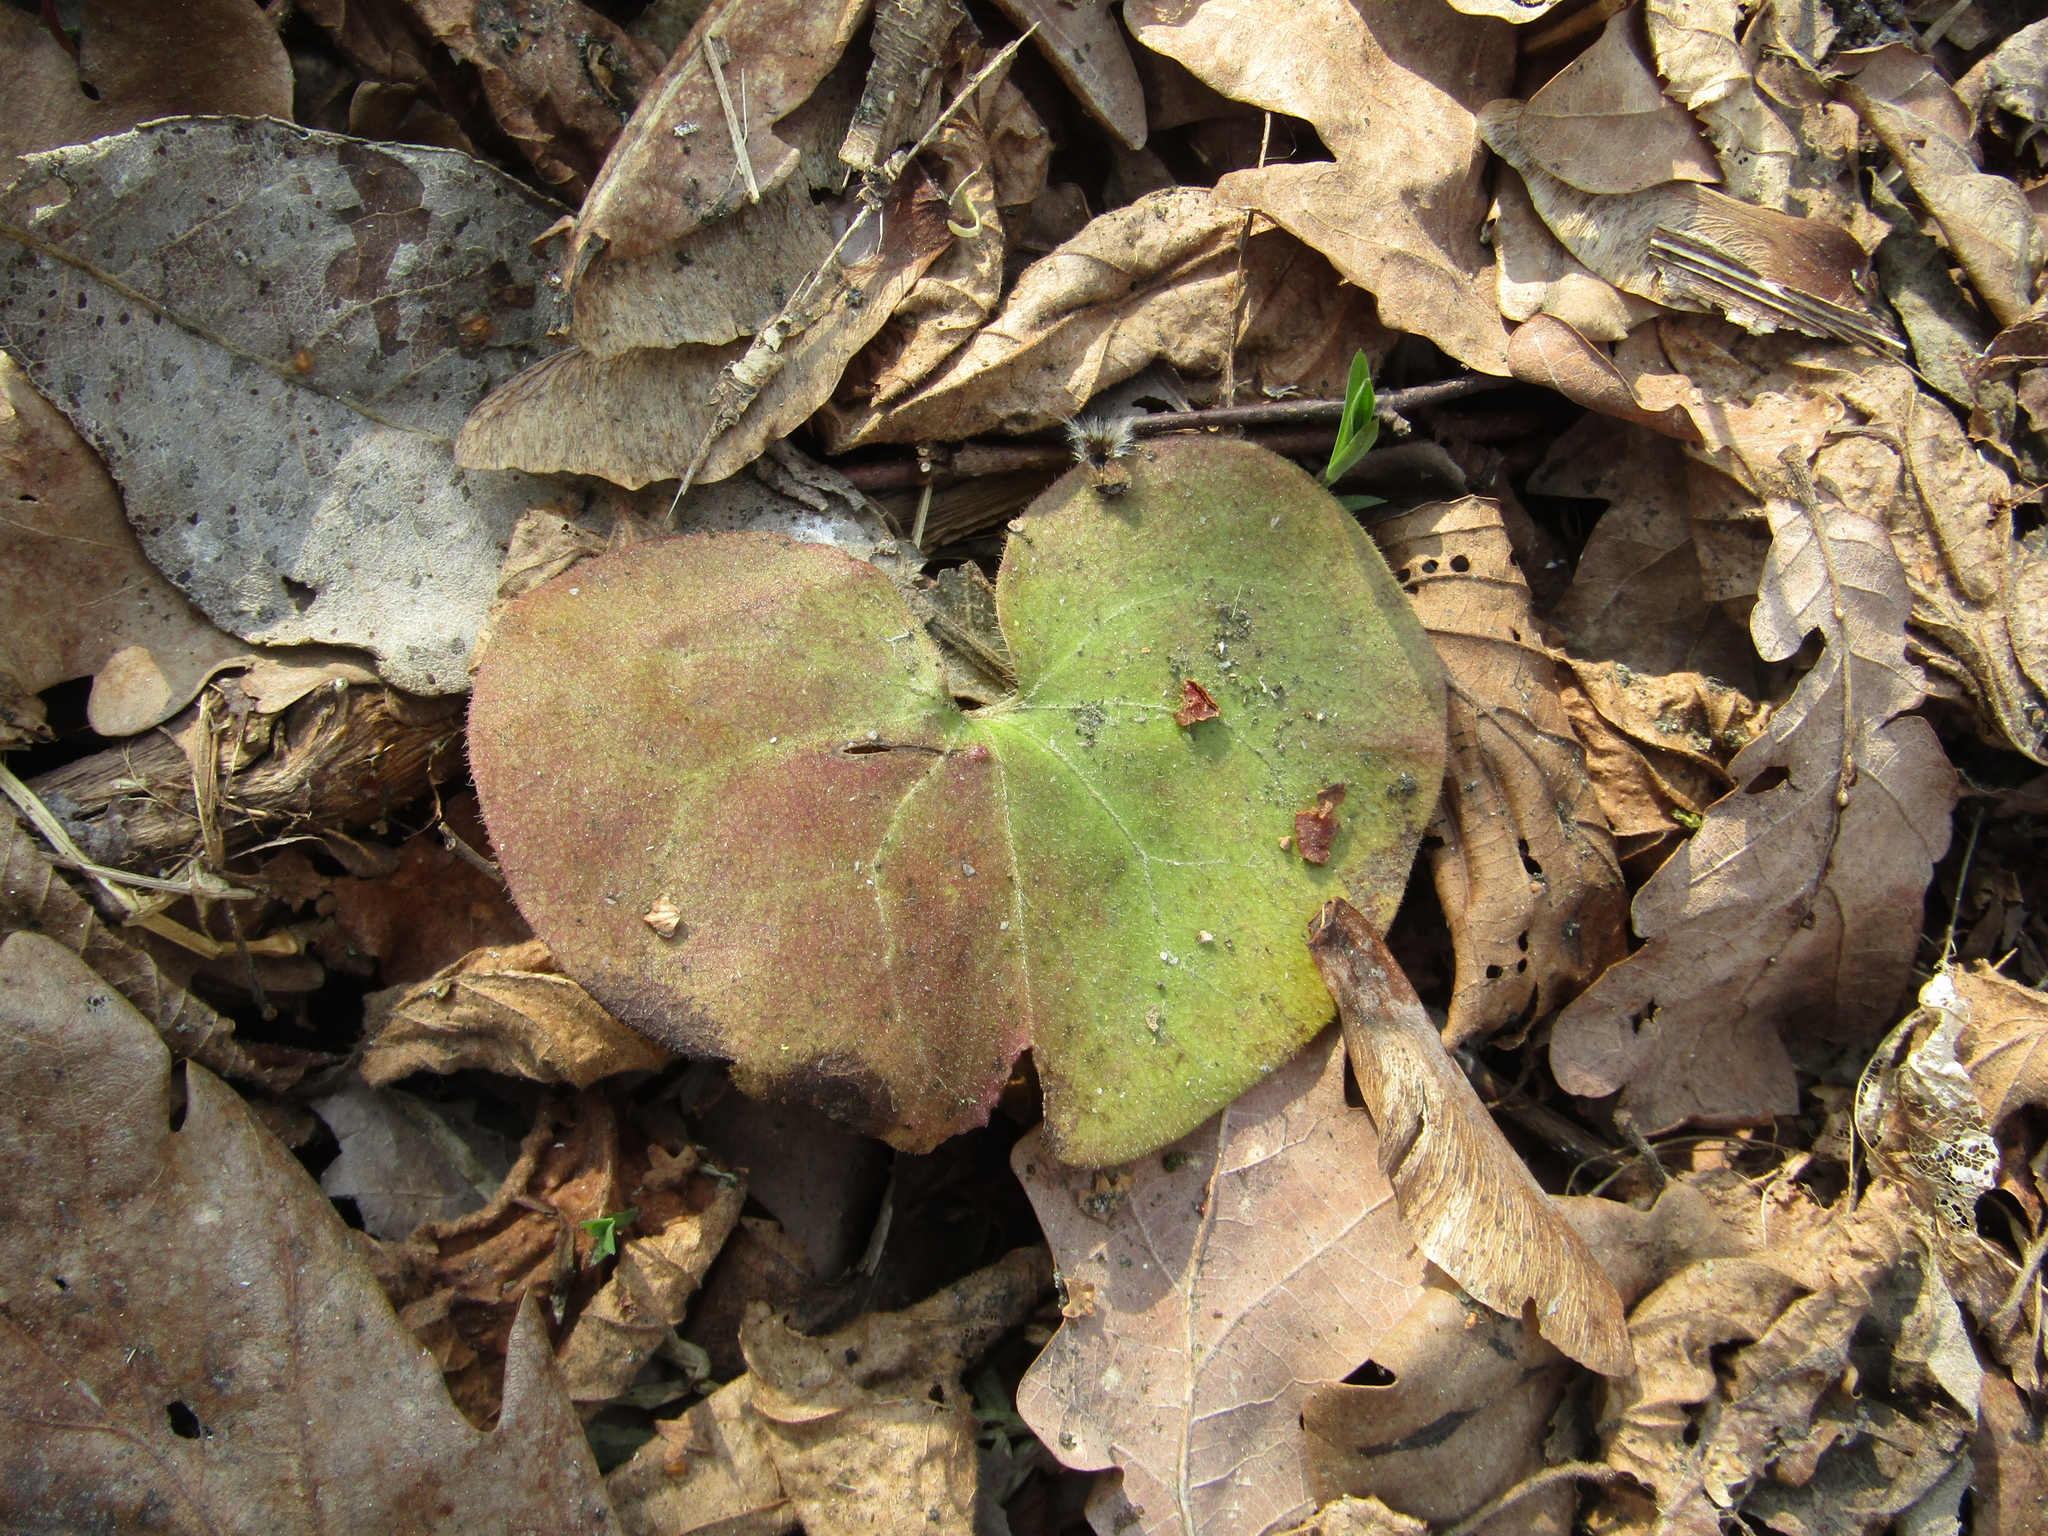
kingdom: Plantae
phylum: Tracheophyta
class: Magnoliopsida
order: Piperales
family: Aristolochiaceae
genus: Asarum
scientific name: Asarum europaeum
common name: Asarabacca
